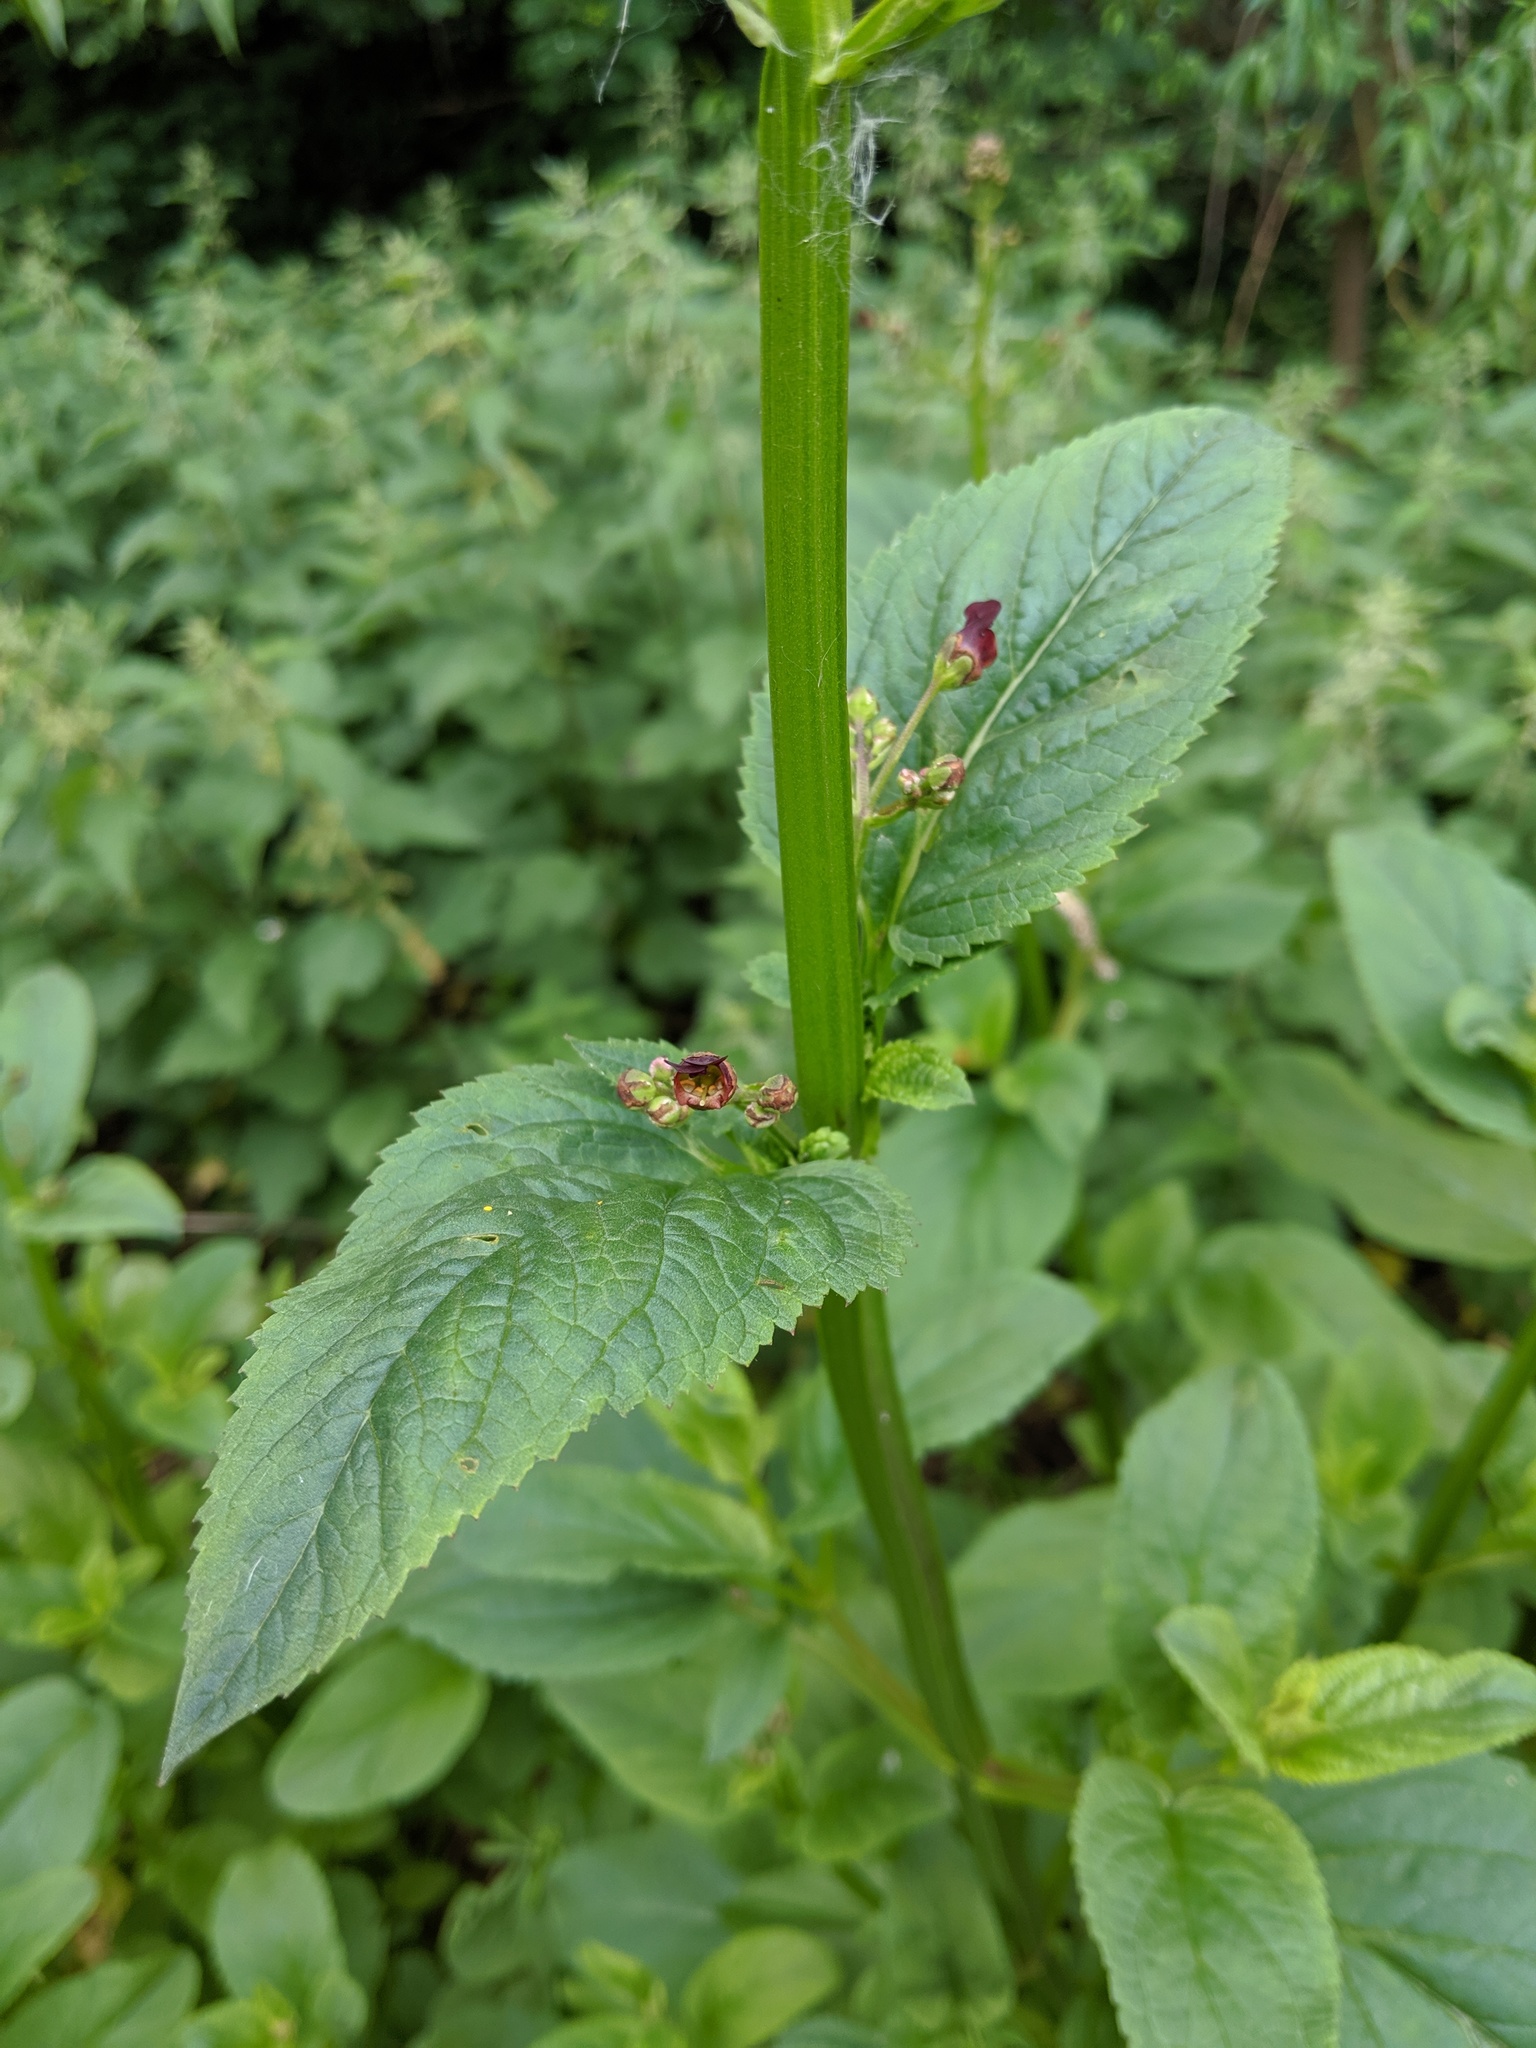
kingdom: Plantae
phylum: Tracheophyta
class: Magnoliopsida
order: Lamiales
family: Scrophulariaceae
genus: Scrophularia
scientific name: Scrophularia auriculata
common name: Water betony
